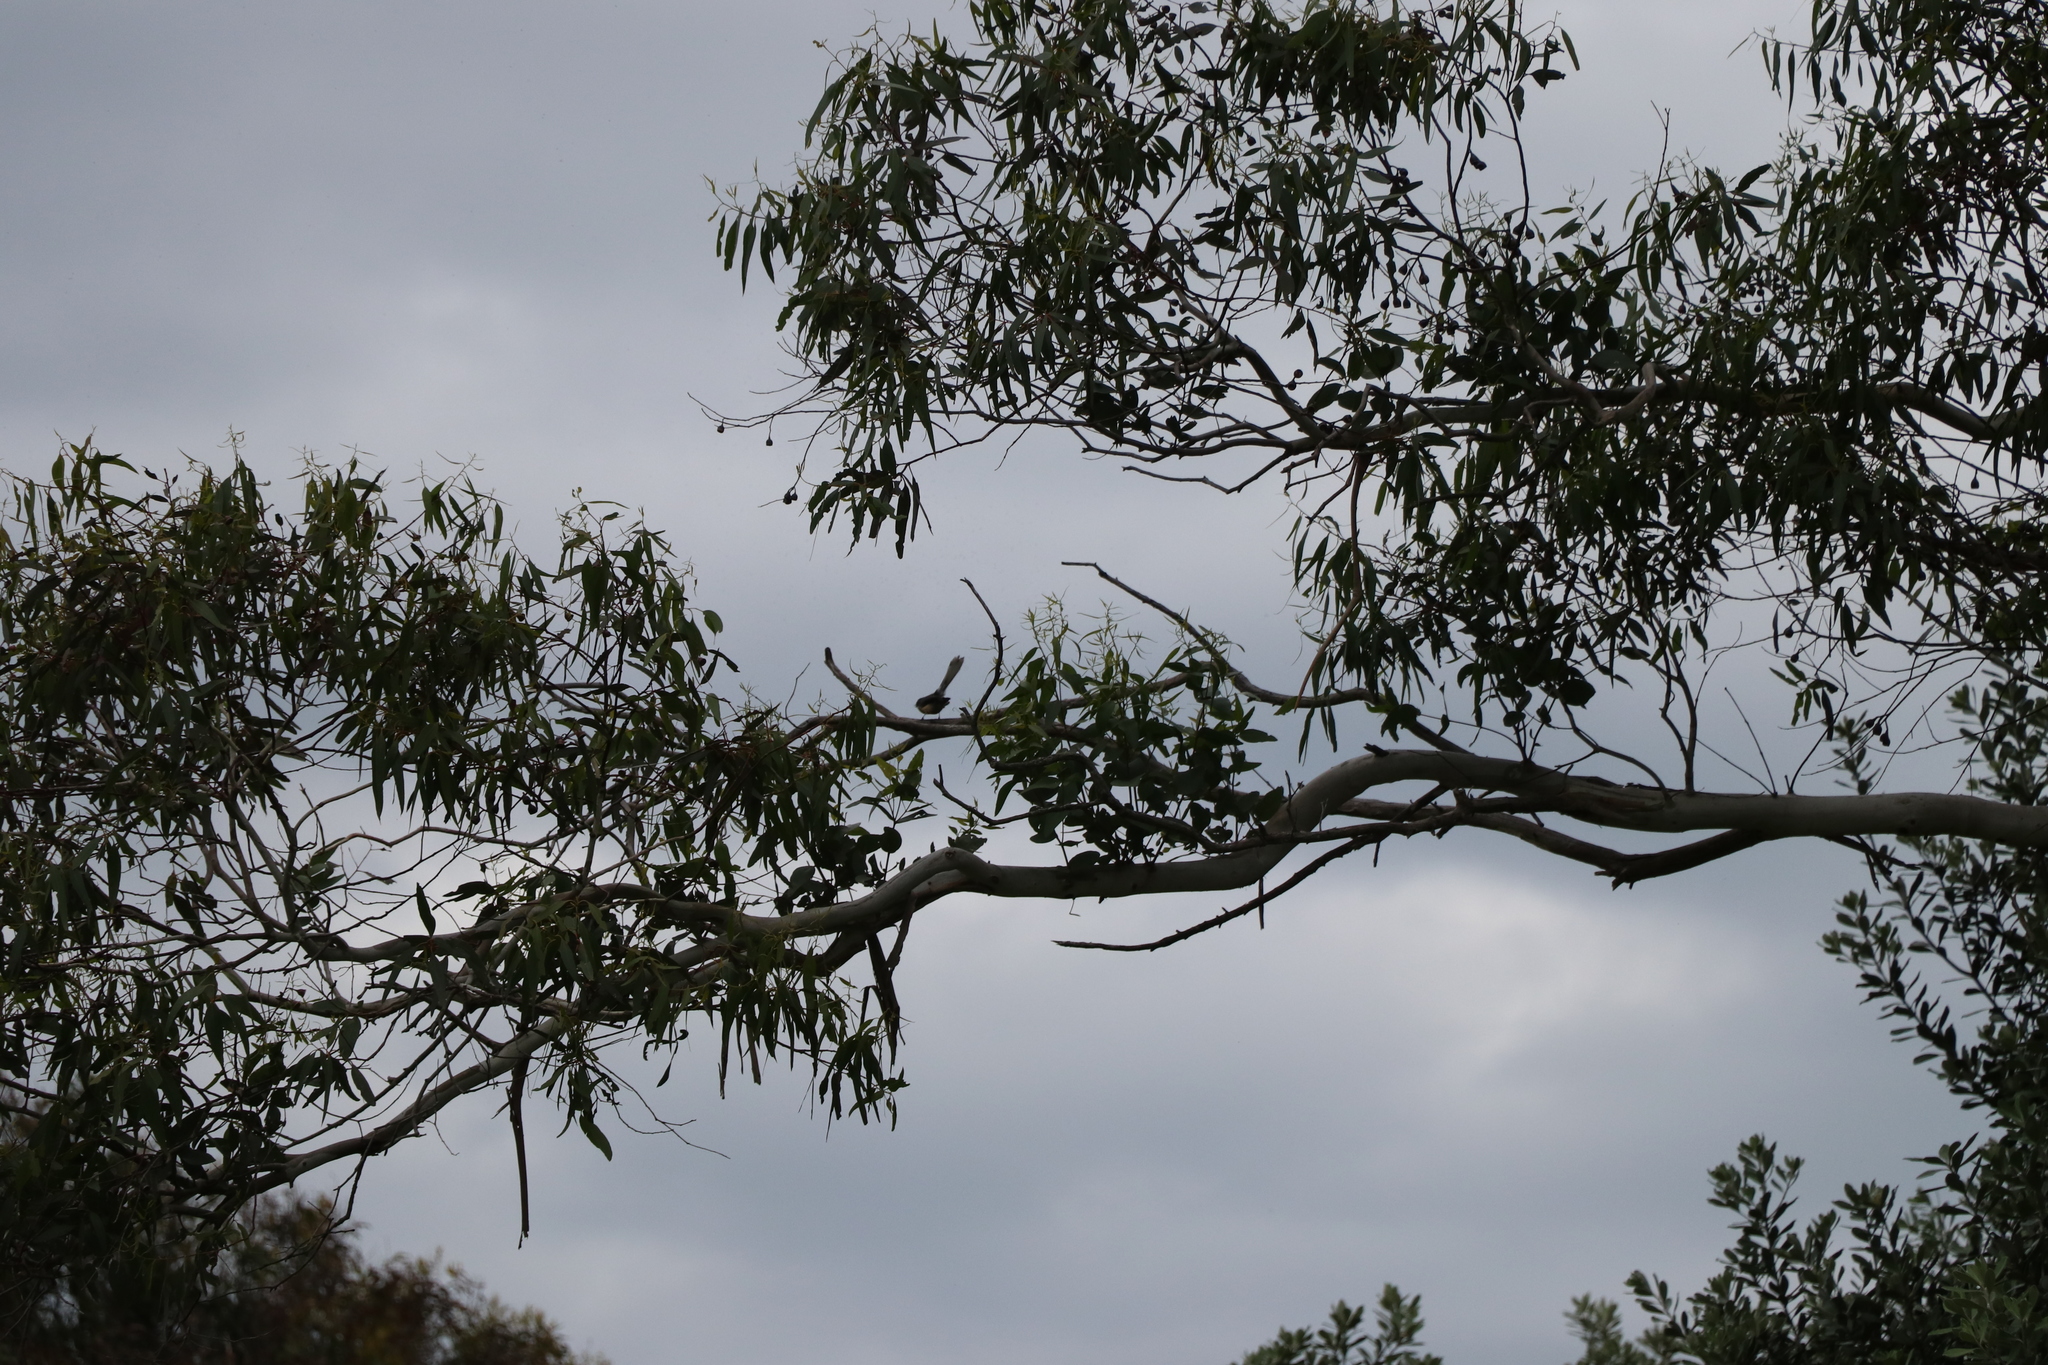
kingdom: Animalia
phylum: Chordata
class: Aves
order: Passeriformes
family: Rhipiduridae
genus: Rhipidura
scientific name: Rhipidura fuliginosa
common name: New zealand fantail
